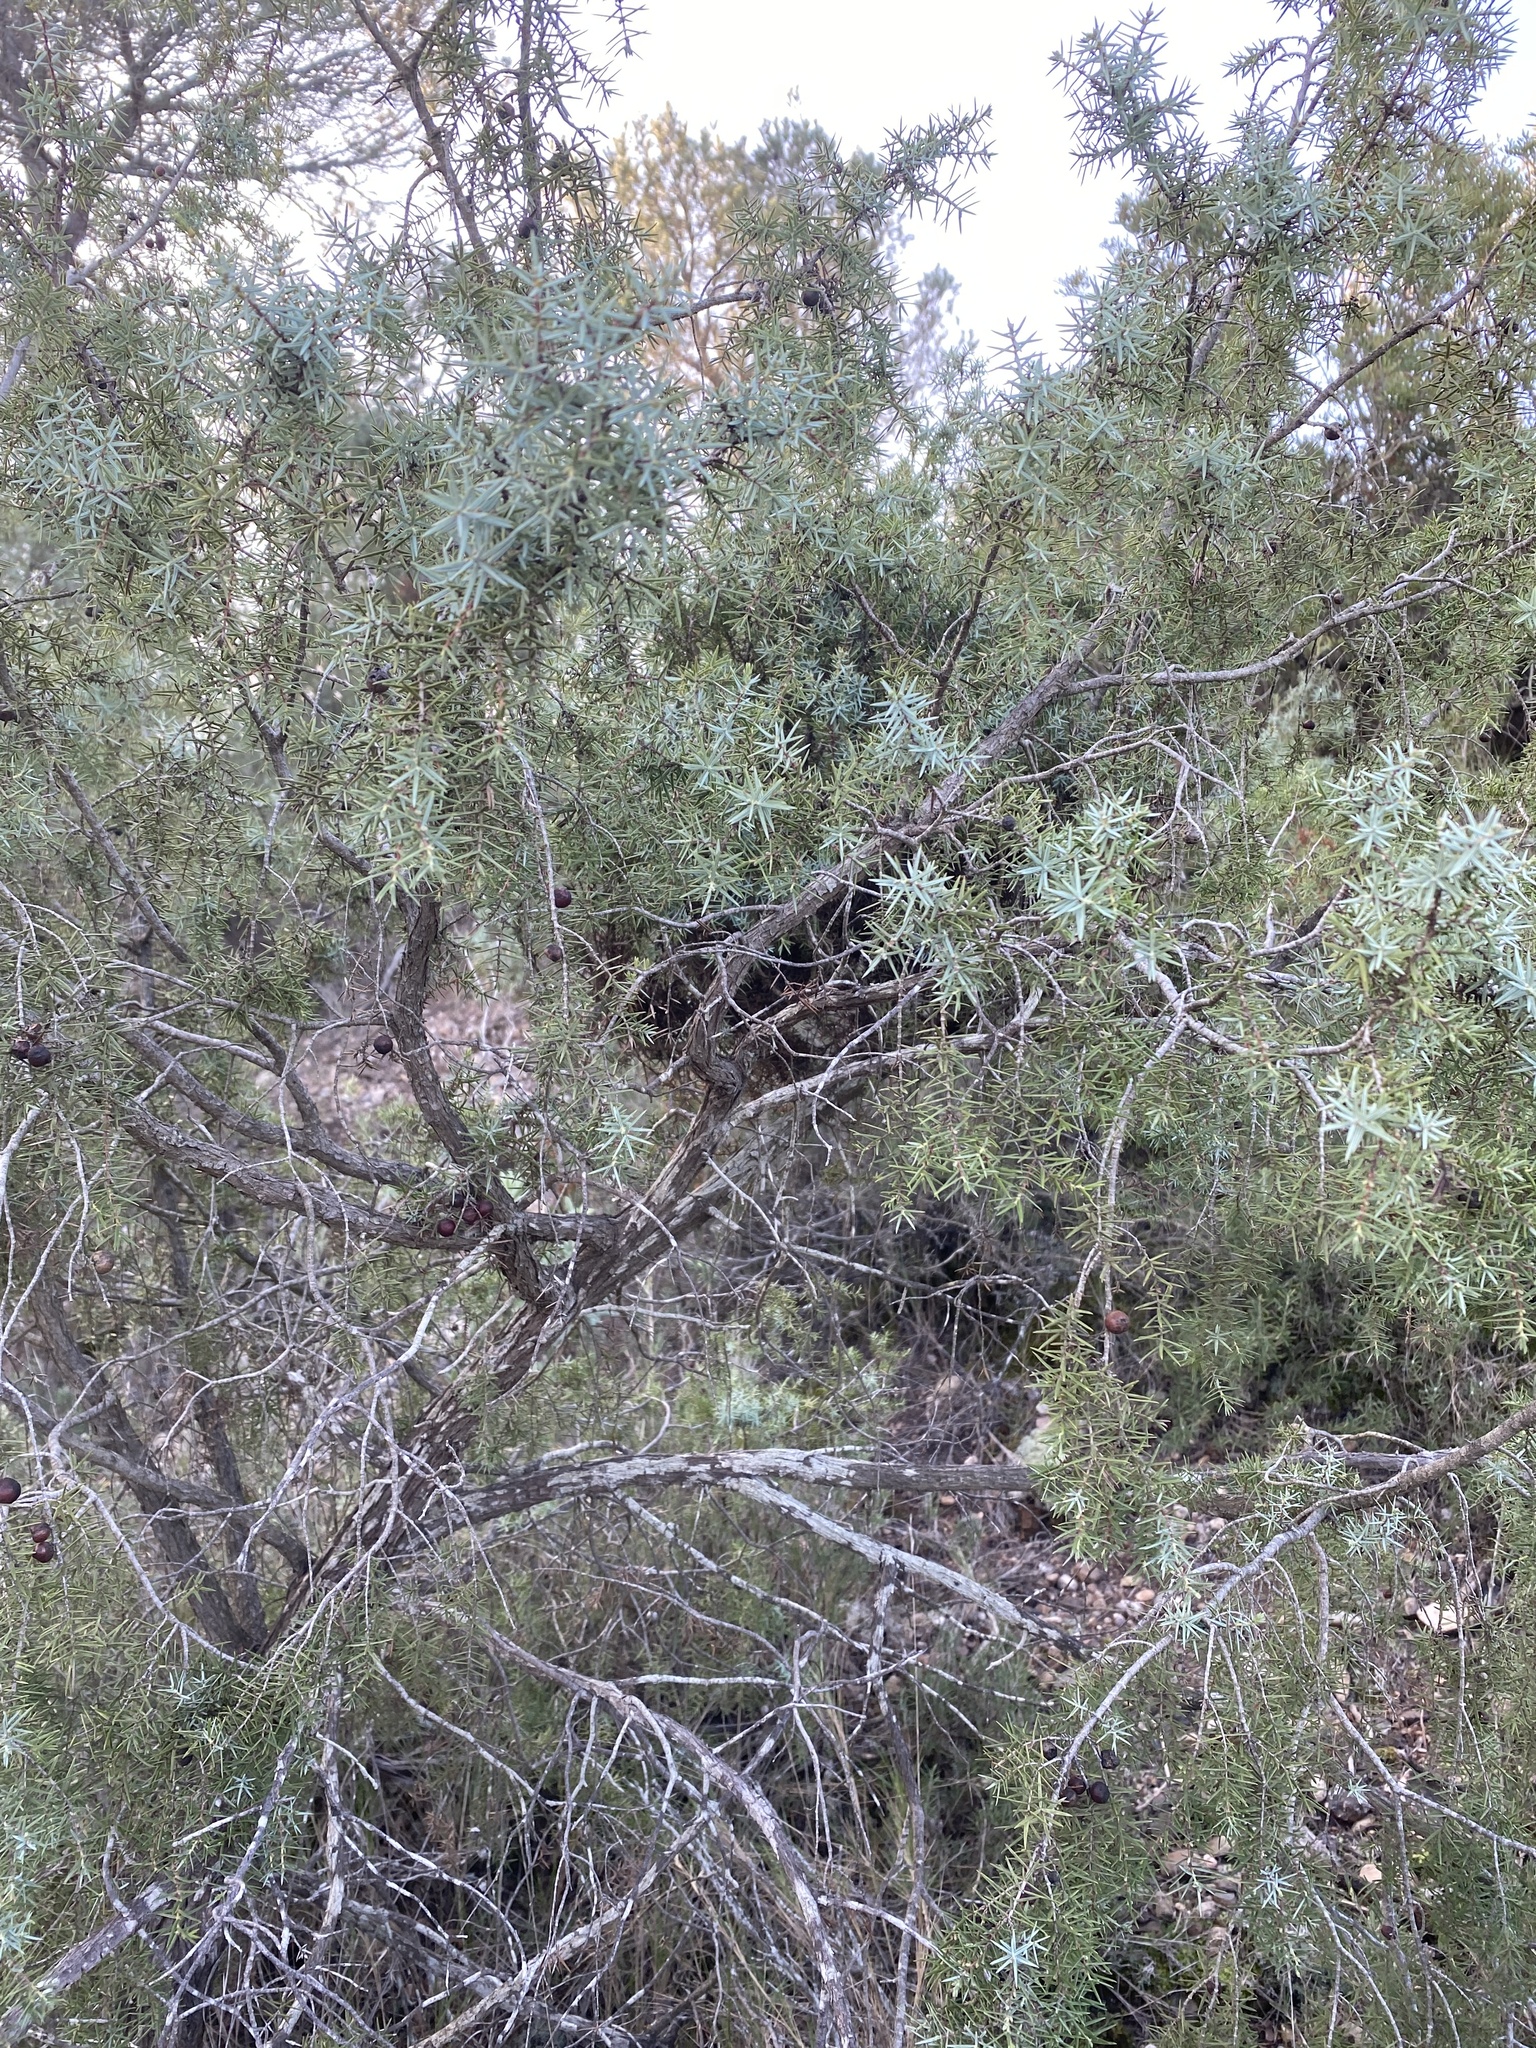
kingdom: Plantae
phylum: Tracheophyta
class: Pinopsida
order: Pinales
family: Cupressaceae
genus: Juniperus
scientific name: Juniperus oxycedrus
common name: Prickly juniper
